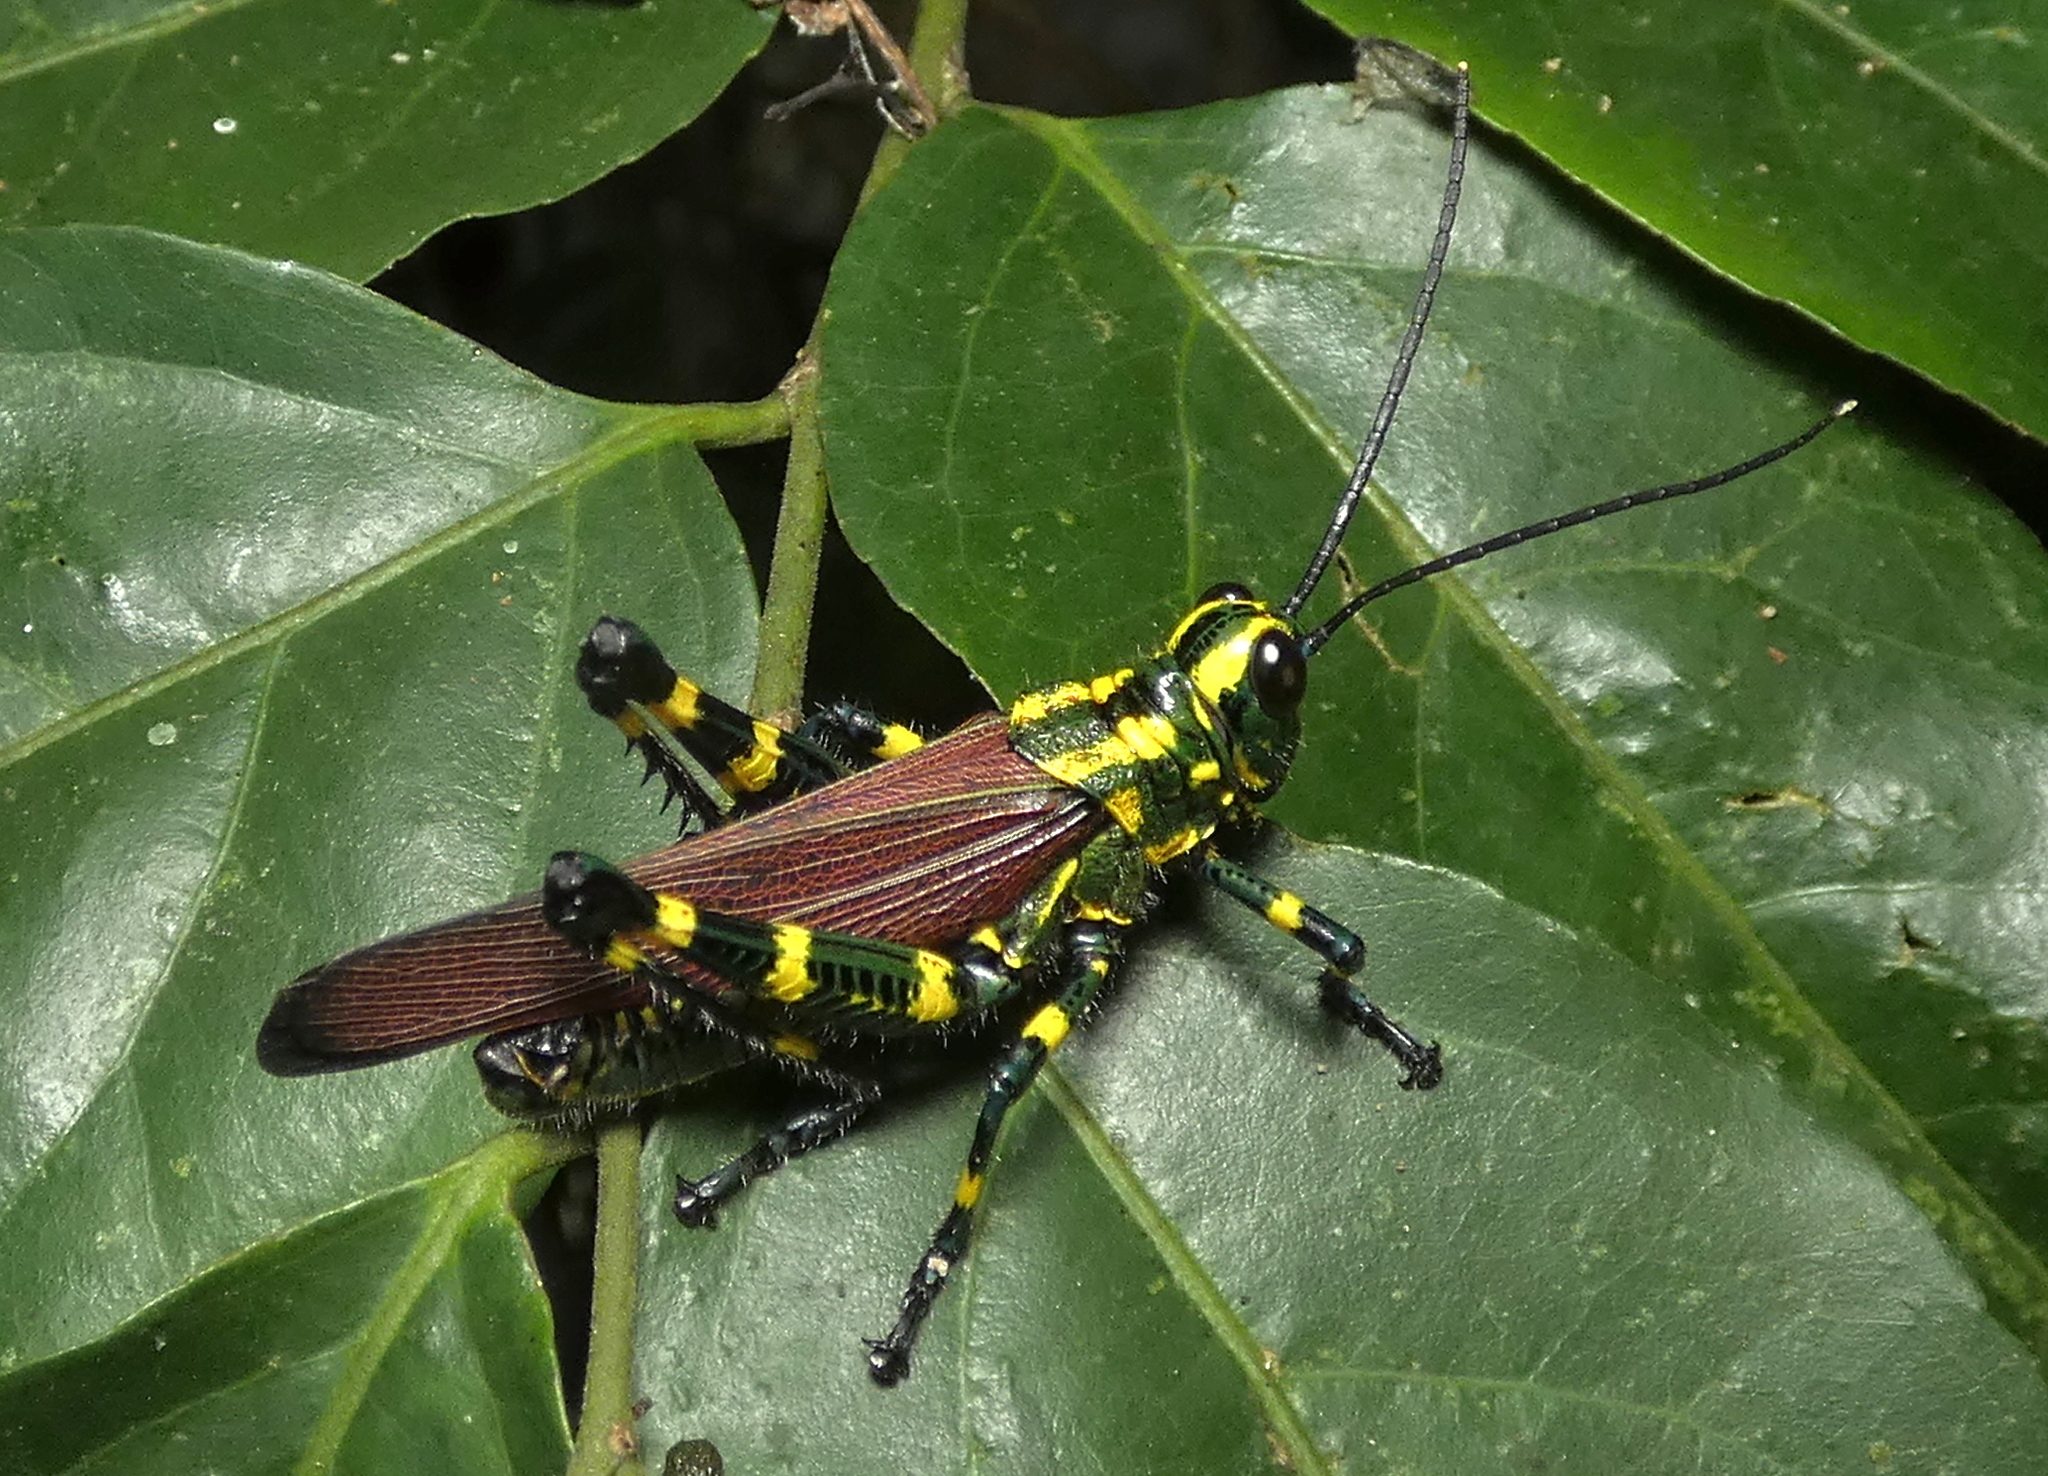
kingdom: Animalia
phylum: Arthropoda
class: Insecta
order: Orthoptera
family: Romaleidae
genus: Chromacris
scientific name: Chromacris speciosa
